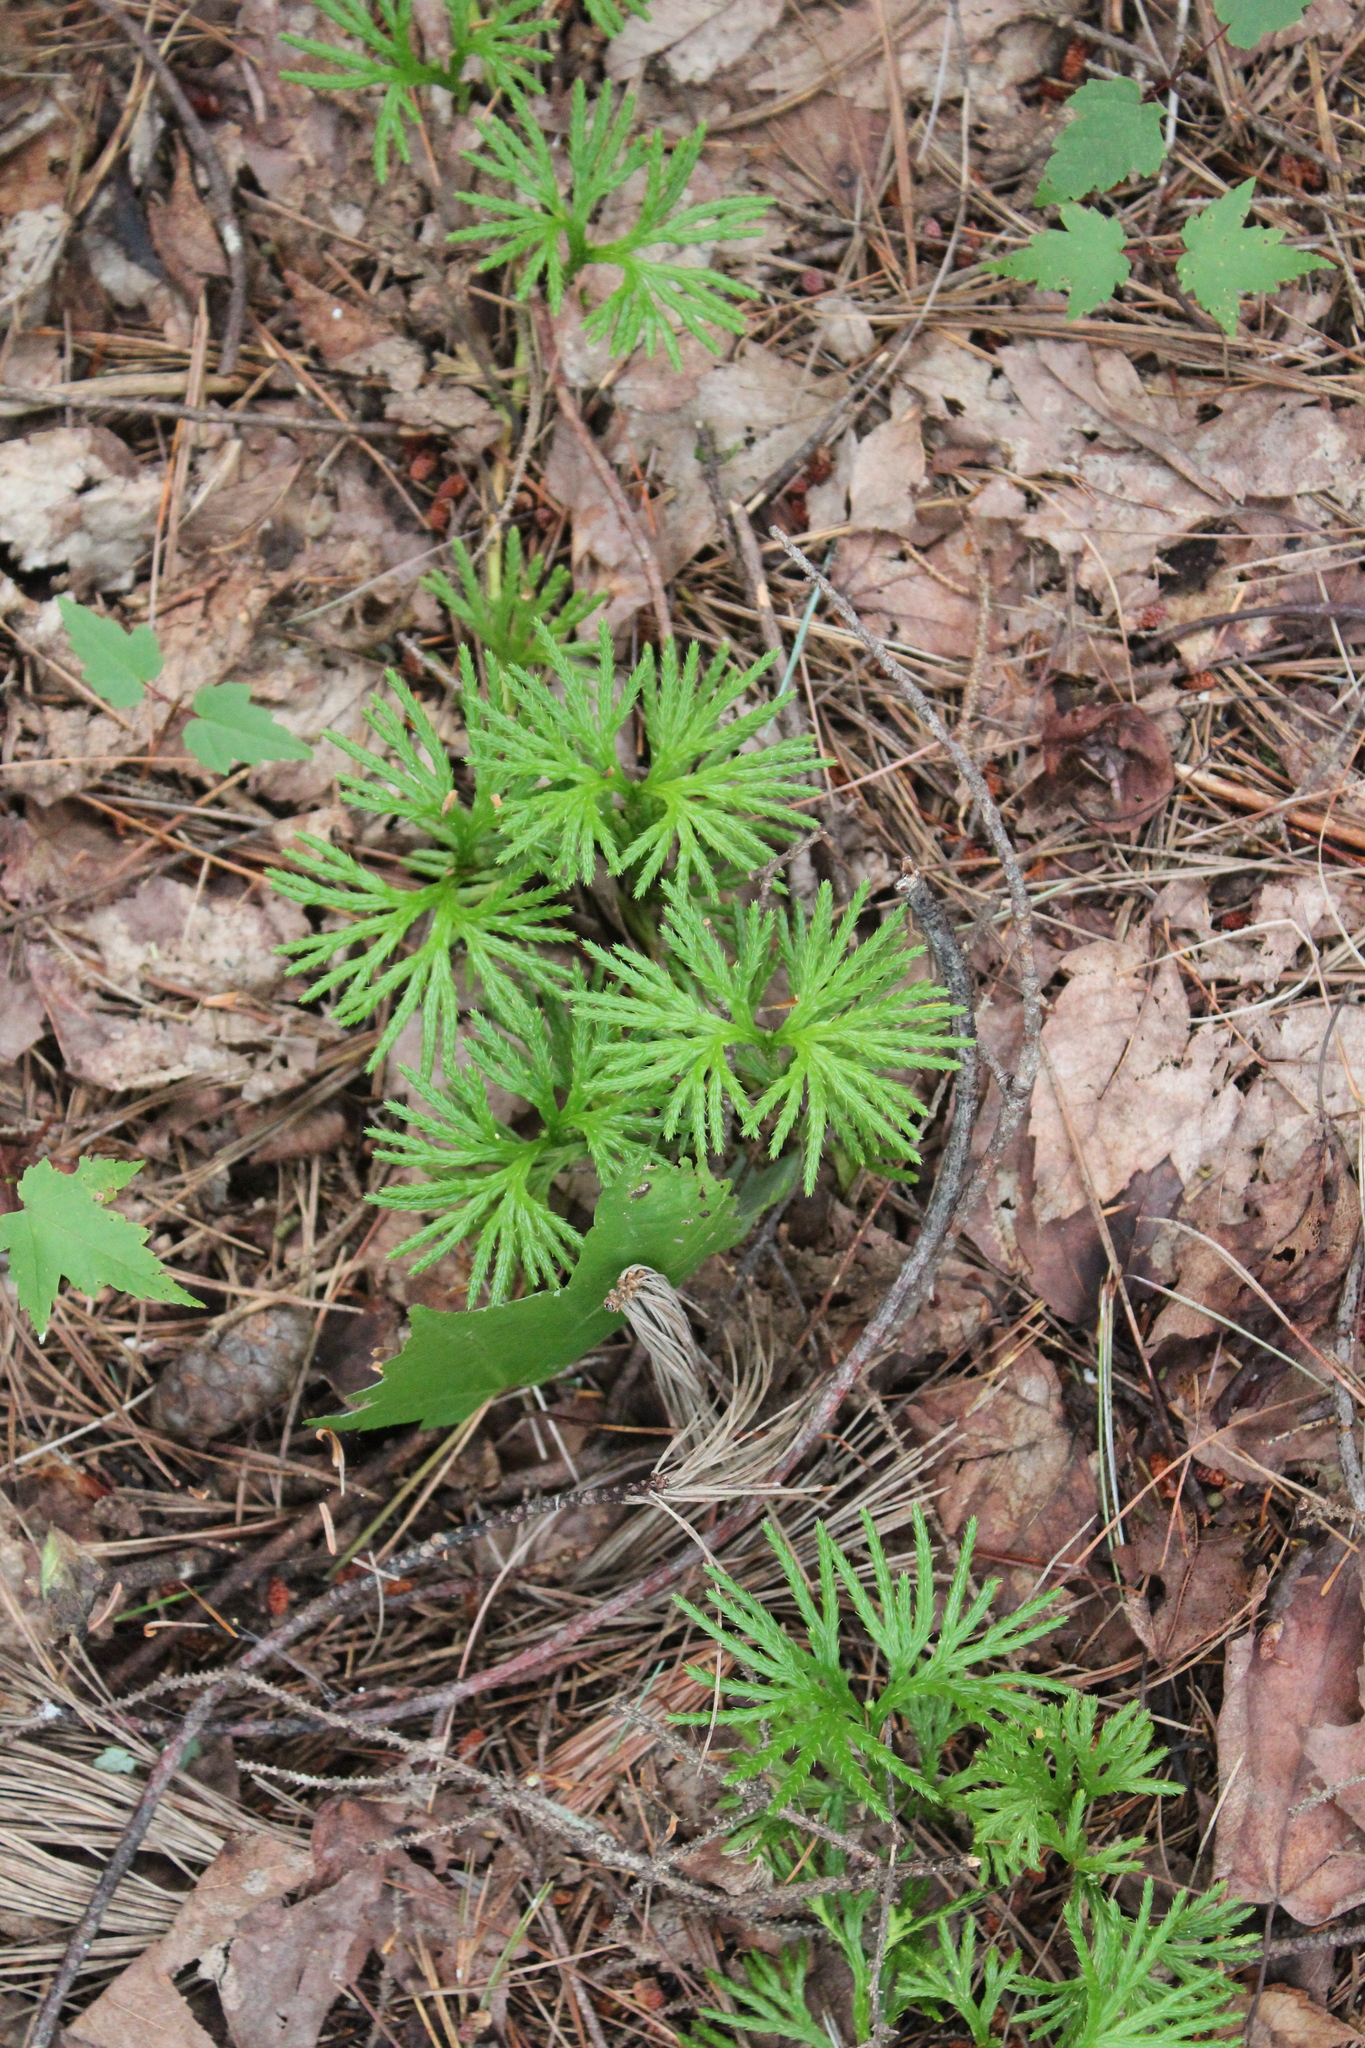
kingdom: Plantae
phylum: Tracheophyta
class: Lycopodiopsida
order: Lycopodiales
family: Lycopodiaceae
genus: Diphasiastrum
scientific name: Diphasiastrum digitatum
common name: Southern running-pine
